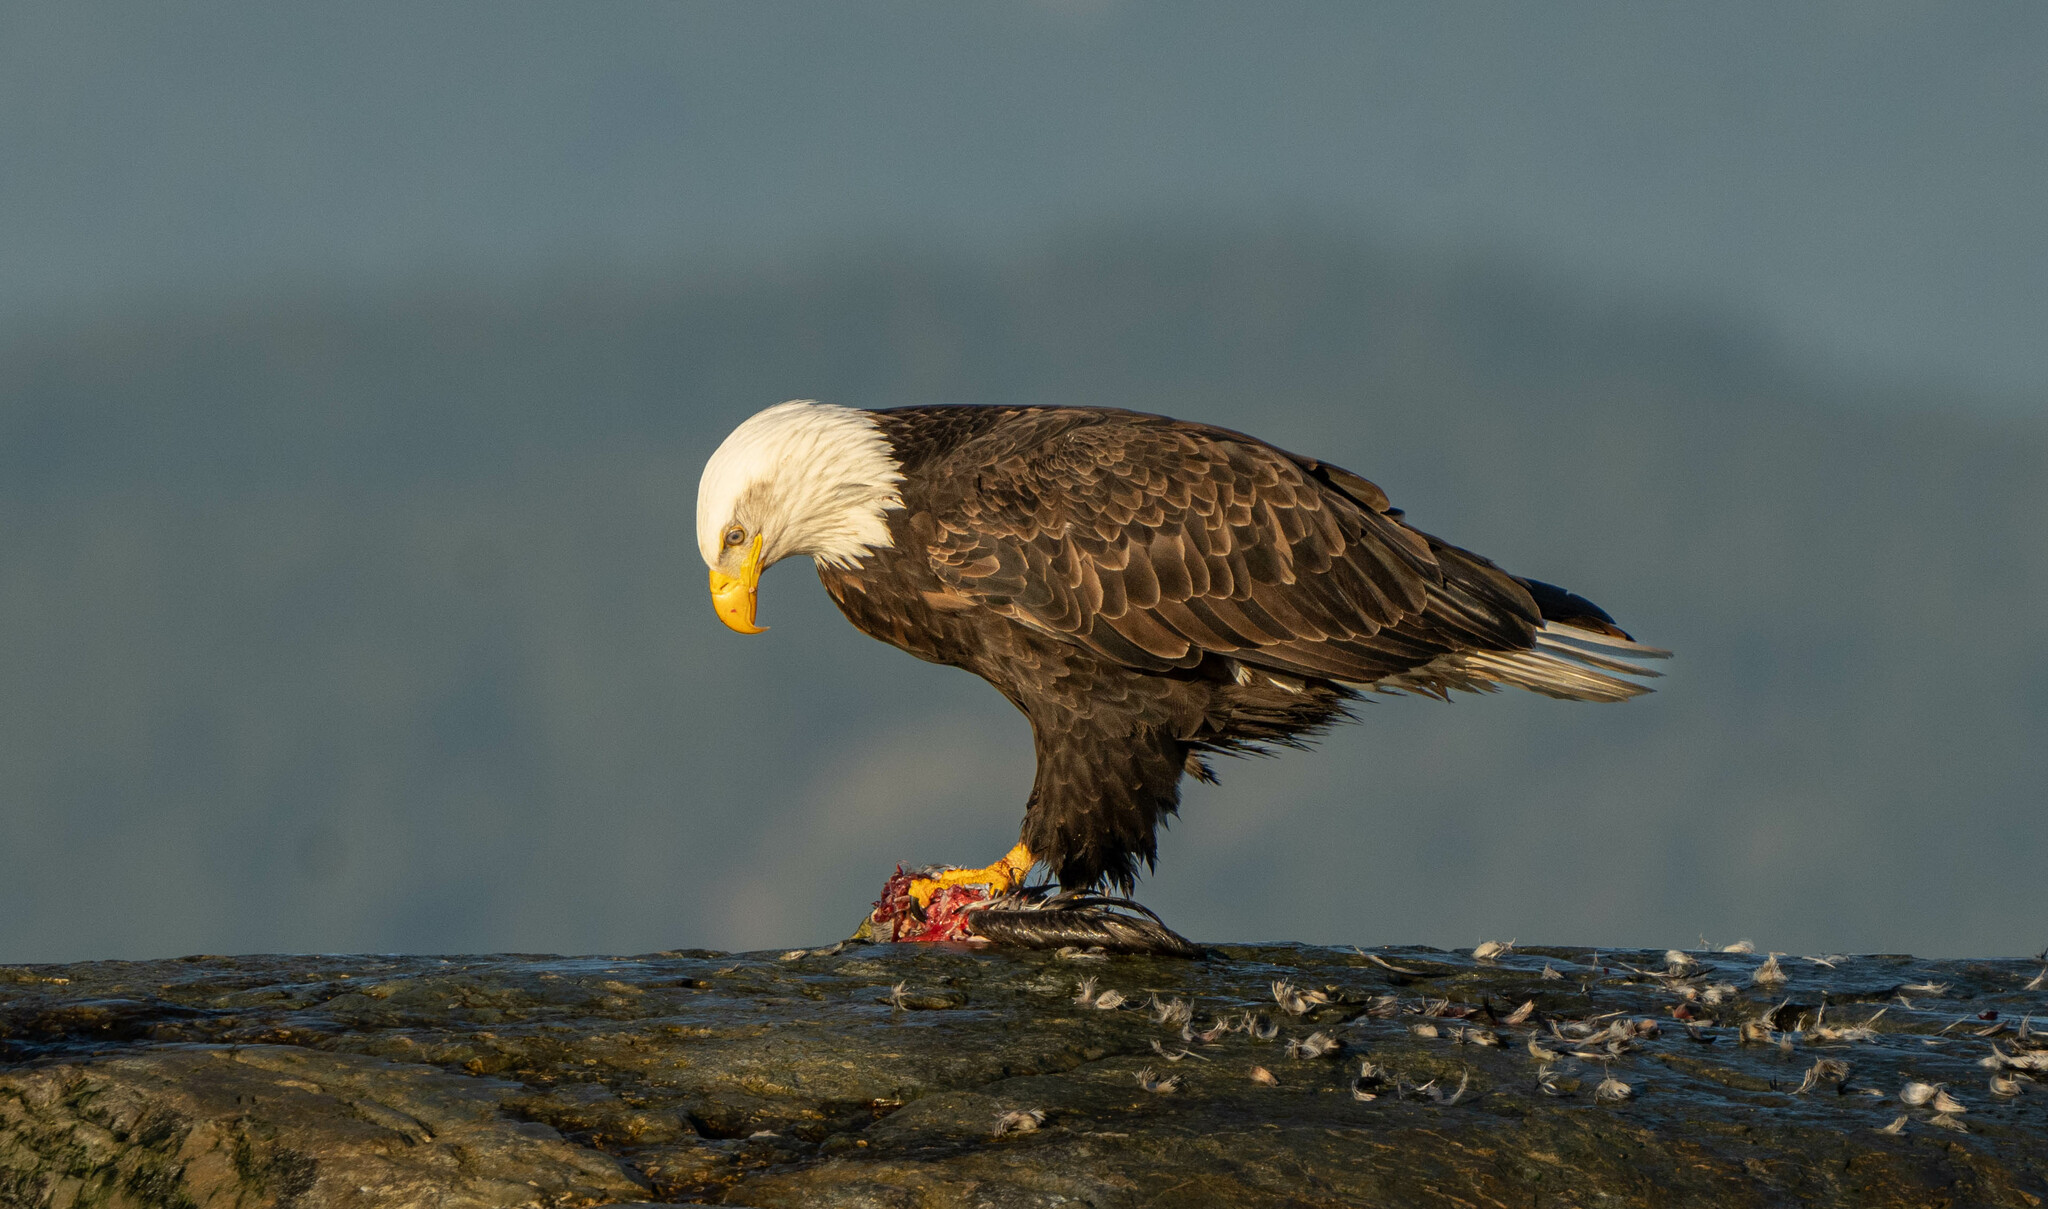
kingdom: Animalia
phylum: Chordata
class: Aves
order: Accipitriformes
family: Accipitridae
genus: Haliaeetus
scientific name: Haliaeetus leucocephalus
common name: Bald eagle
